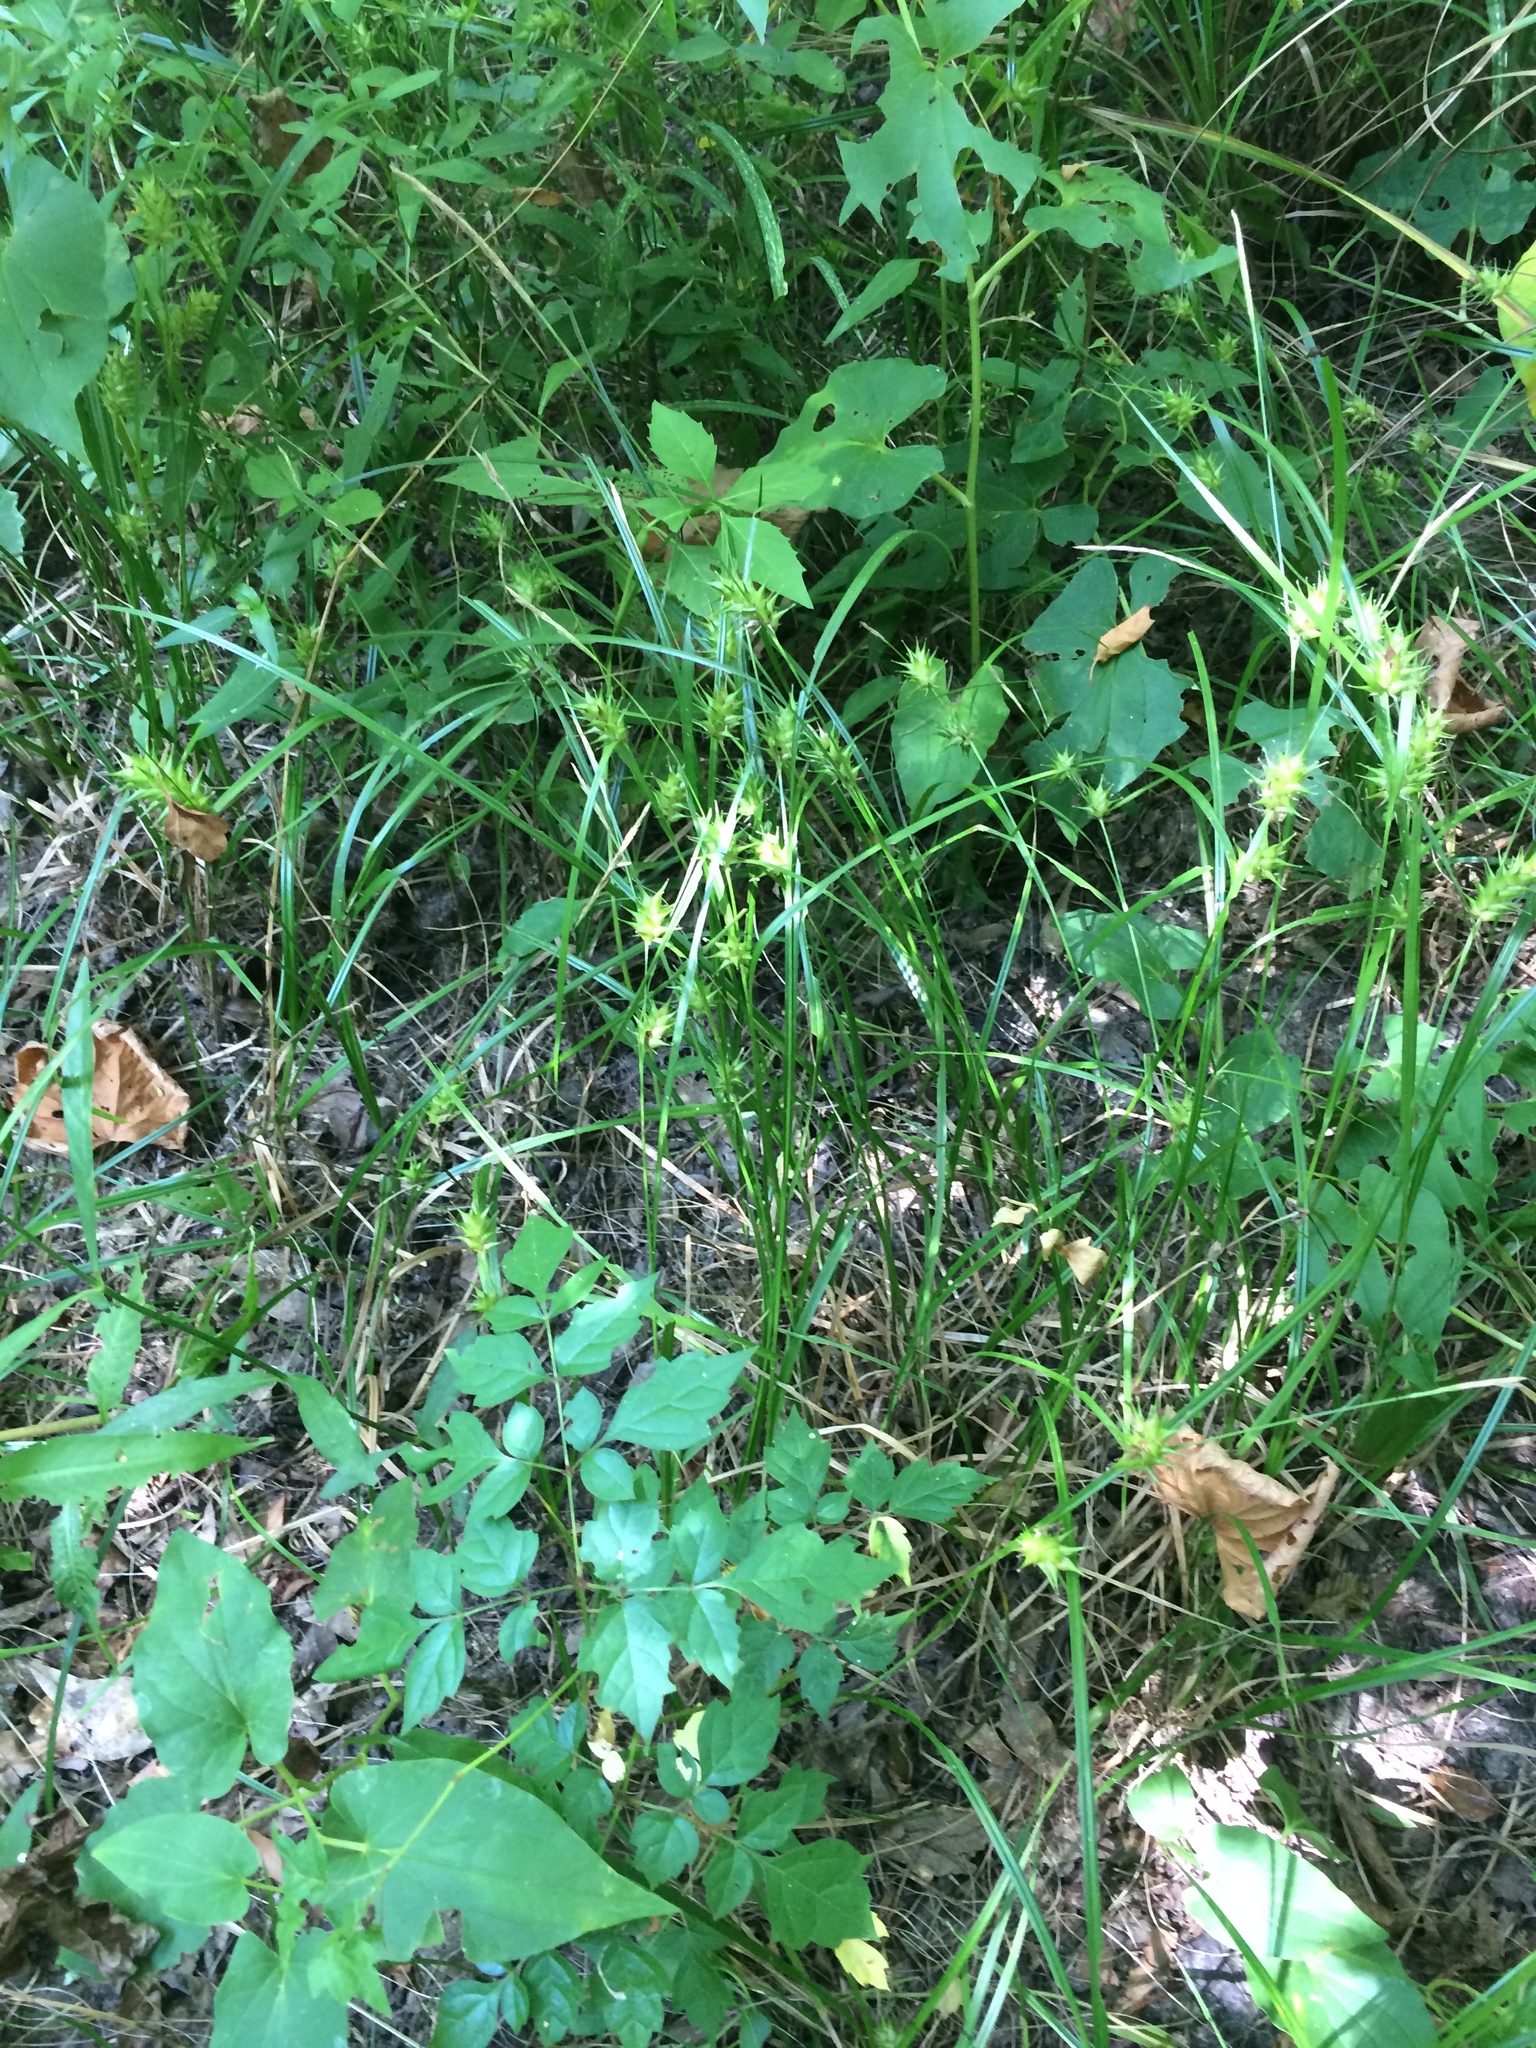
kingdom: Plantae
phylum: Tracheophyta
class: Liliopsida
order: Poales
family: Cyperaceae
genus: Carex
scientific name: Carex louisianica
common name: Louisiana sedge
